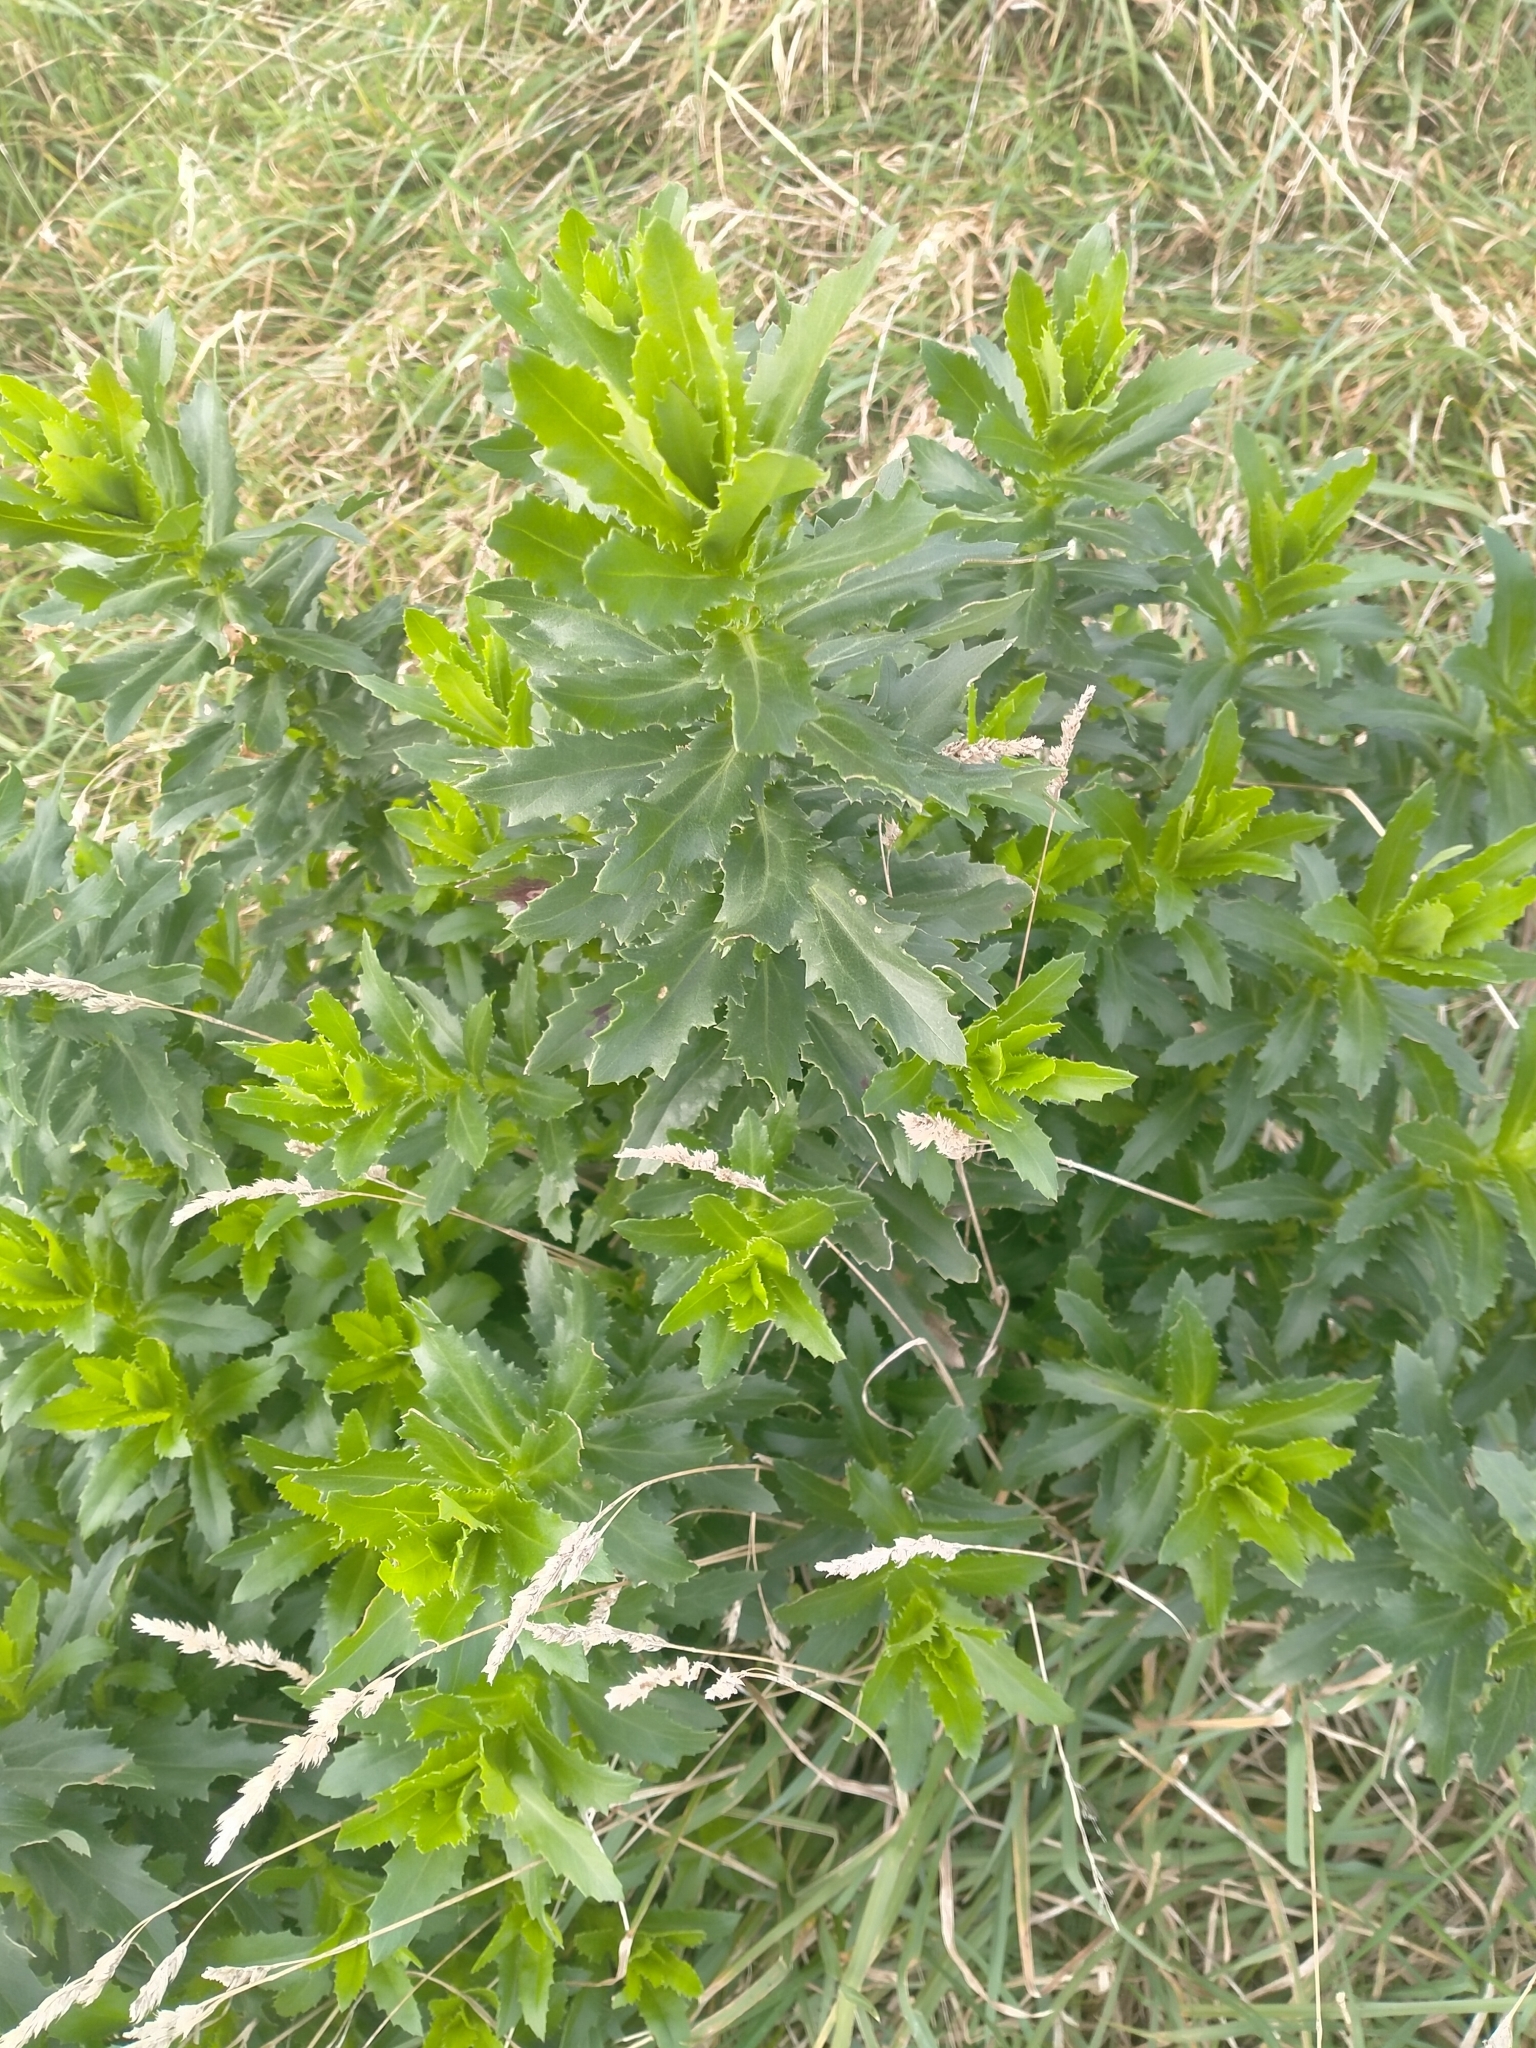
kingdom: Plantae
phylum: Tracheophyta
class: Magnoliopsida
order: Asterales
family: Asteraceae
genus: Senecio
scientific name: Senecio glastifolius
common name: Woad-leaved ragwort
